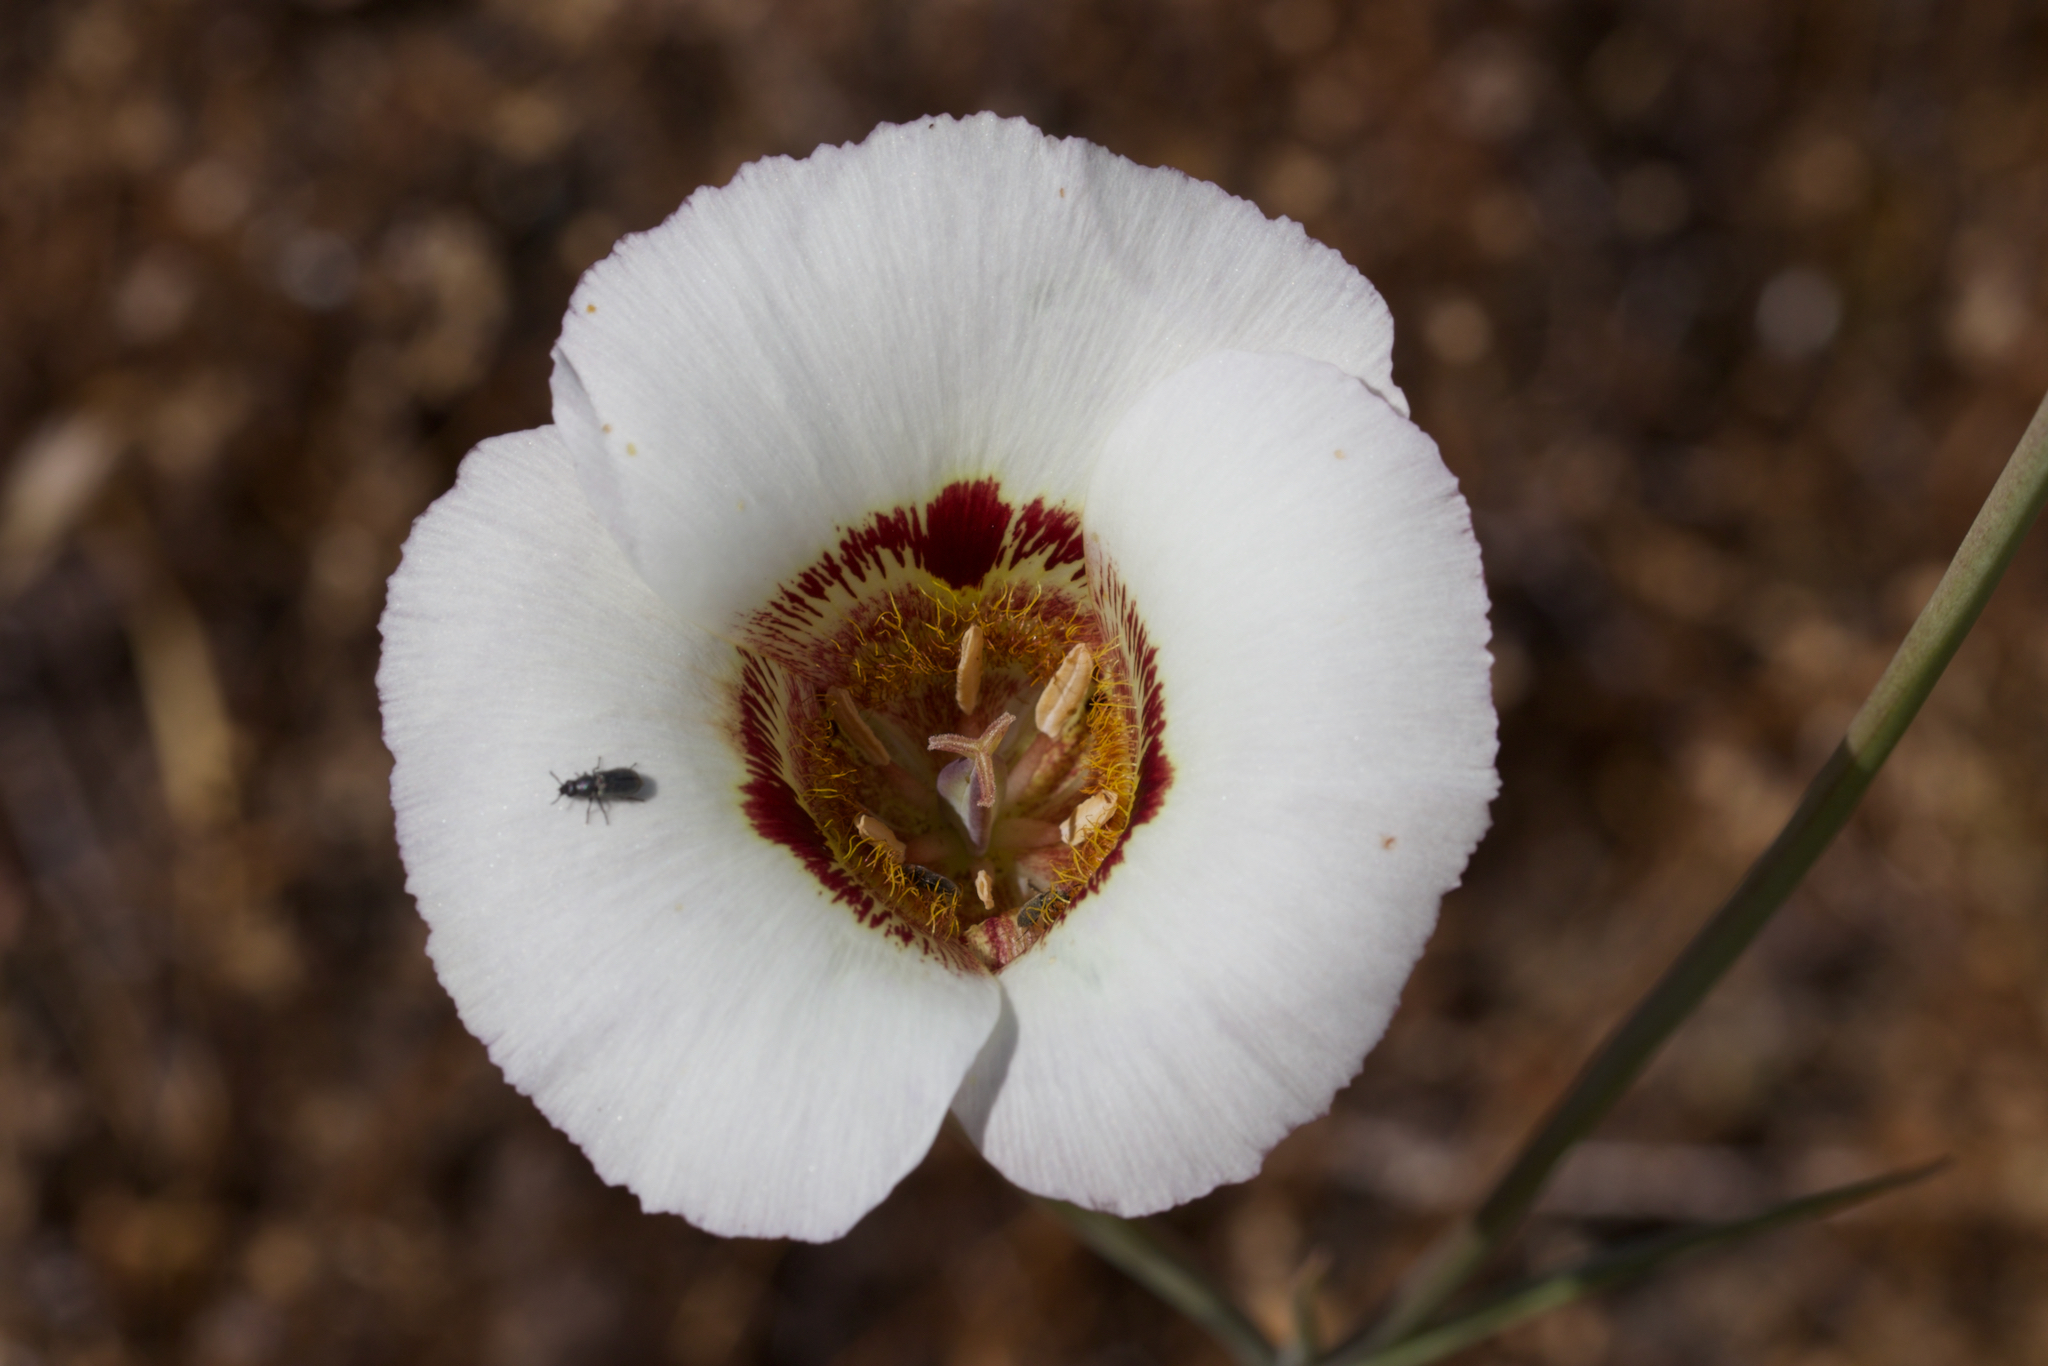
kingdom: Plantae
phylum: Tracheophyta
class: Liliopsida
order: Liliales
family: Liliaceae
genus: Calochortus
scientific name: Calochortus vestae
